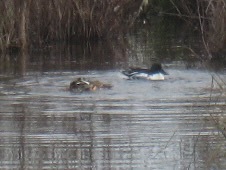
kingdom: Animalia
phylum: Chordata
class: Aves
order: Anseriformes
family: Anatidae
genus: Spatula
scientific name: Spatula clypeata
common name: Northern shoveler
